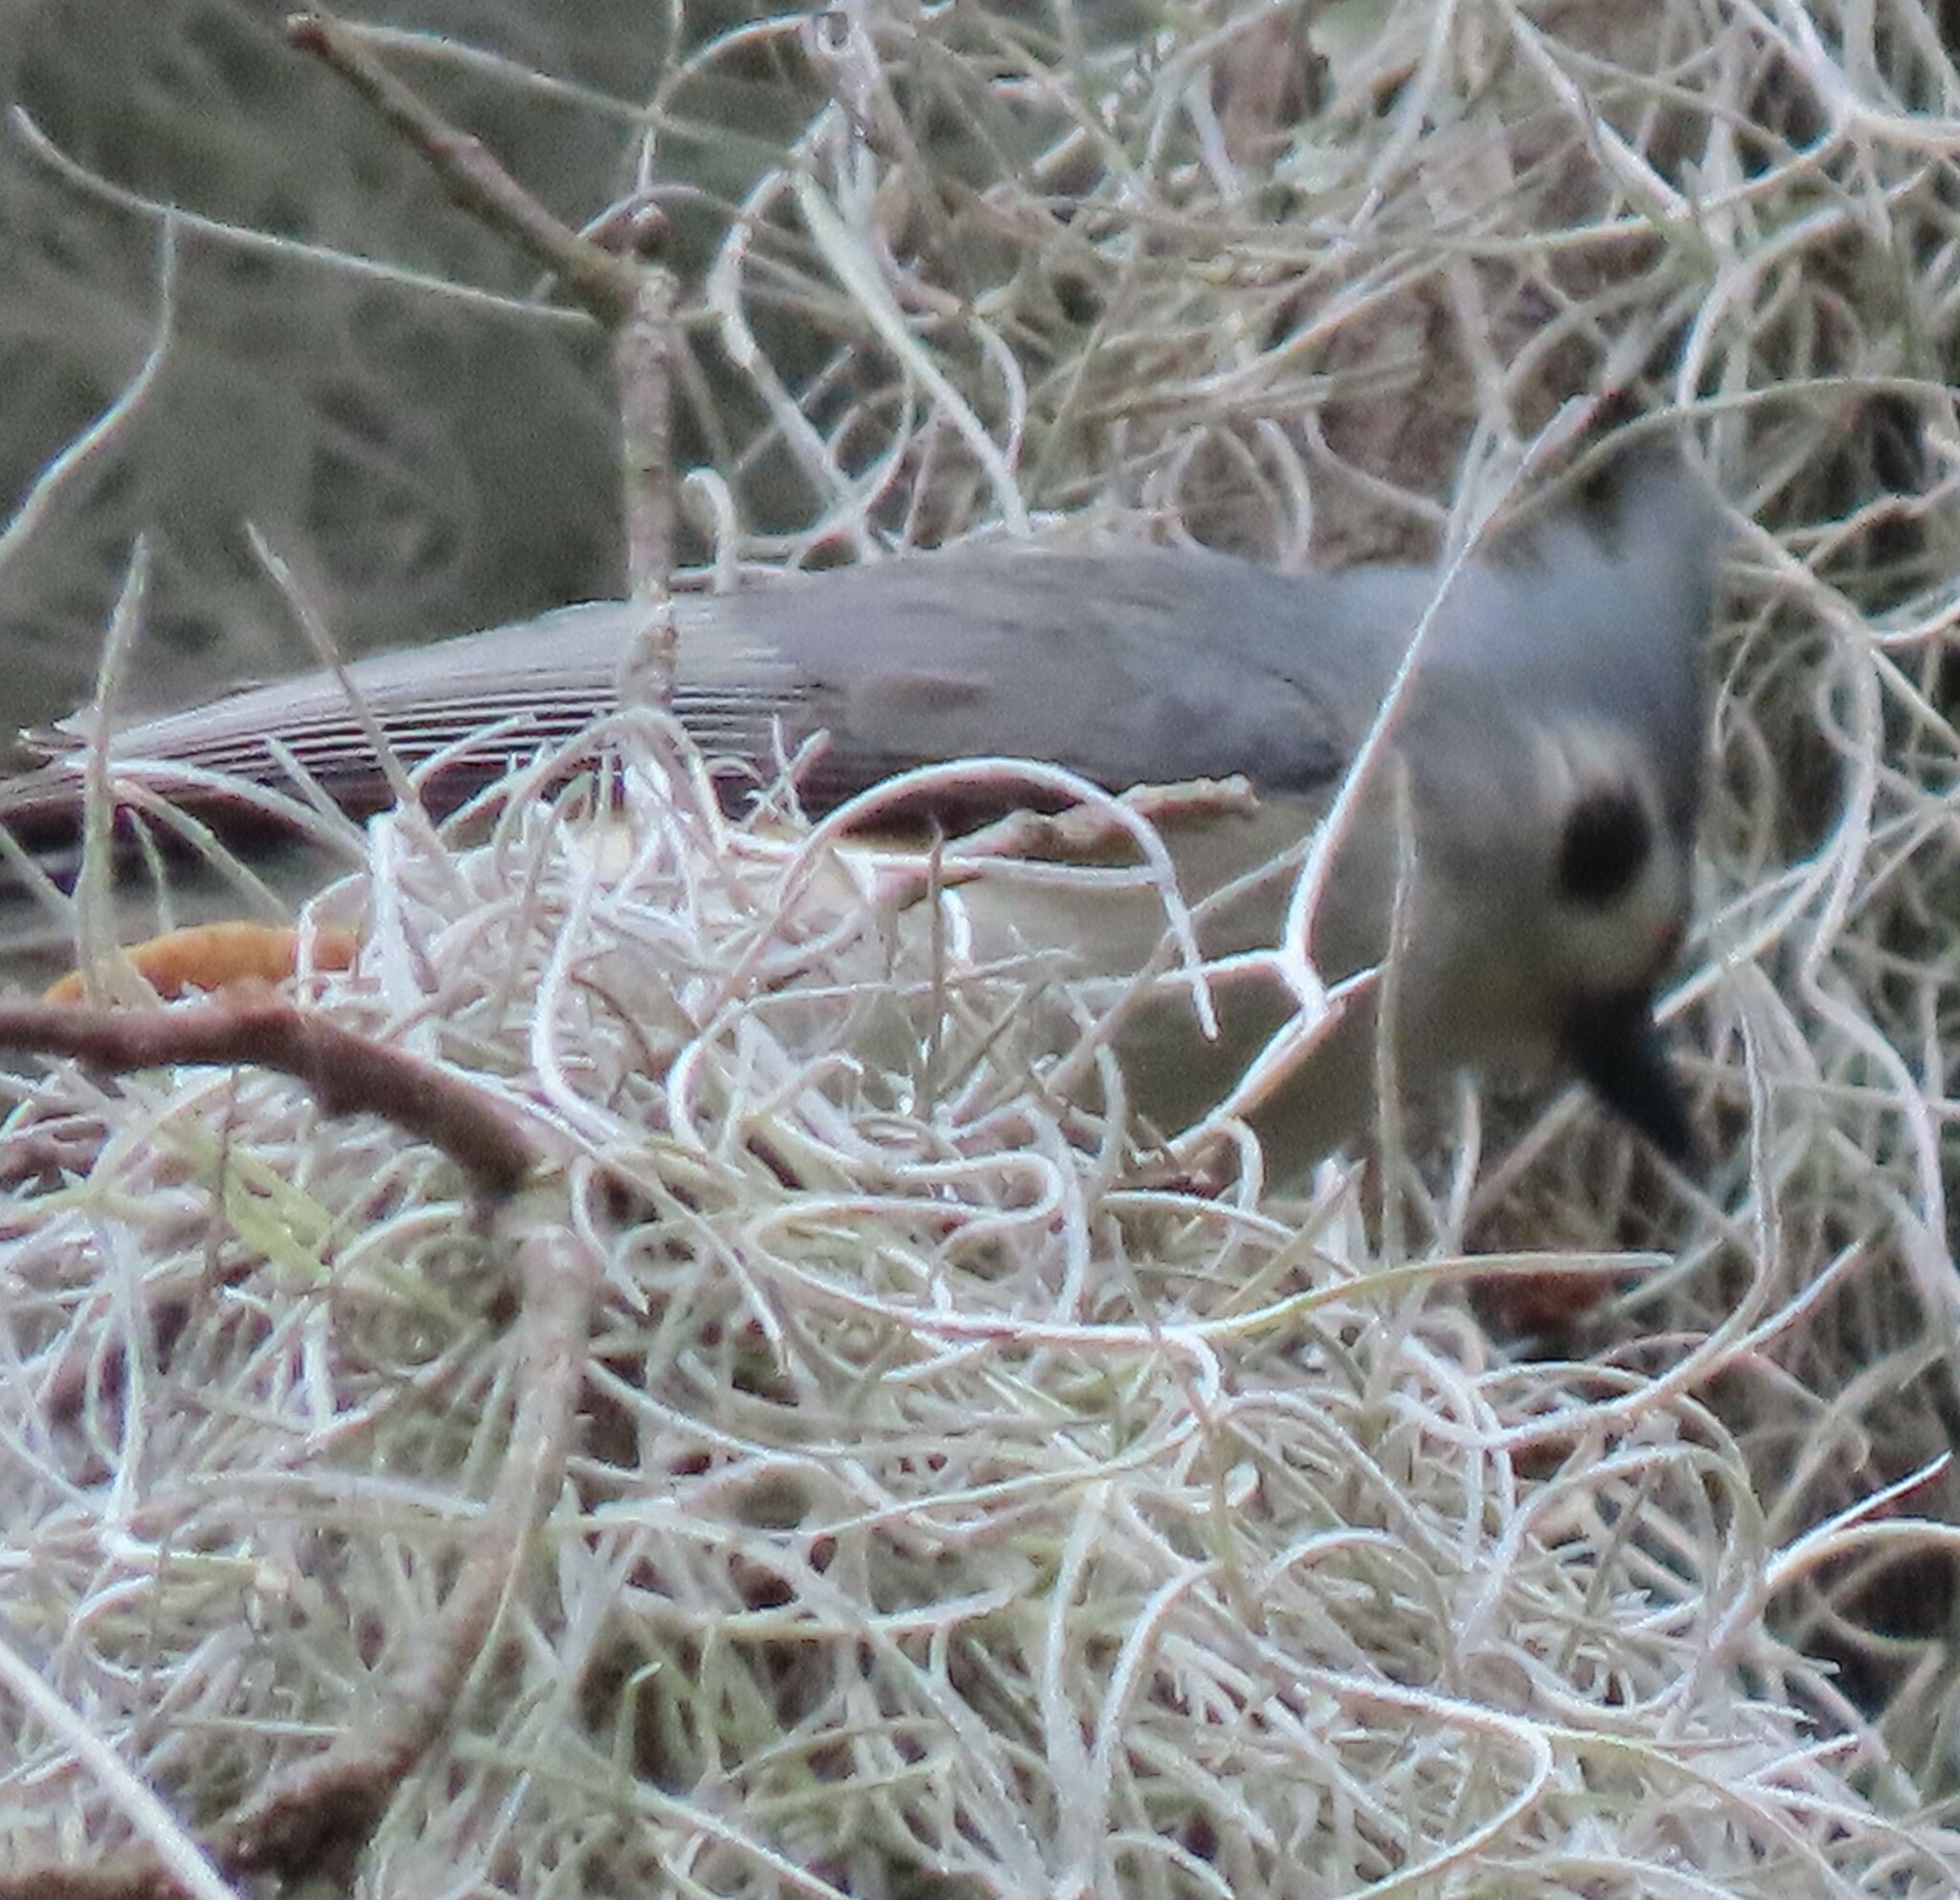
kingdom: Animalia
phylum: Chordata
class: Aves
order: Passeriformes
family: Paridae
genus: Baeolophus
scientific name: Baeolophus bicolor
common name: Tufted titmouse
